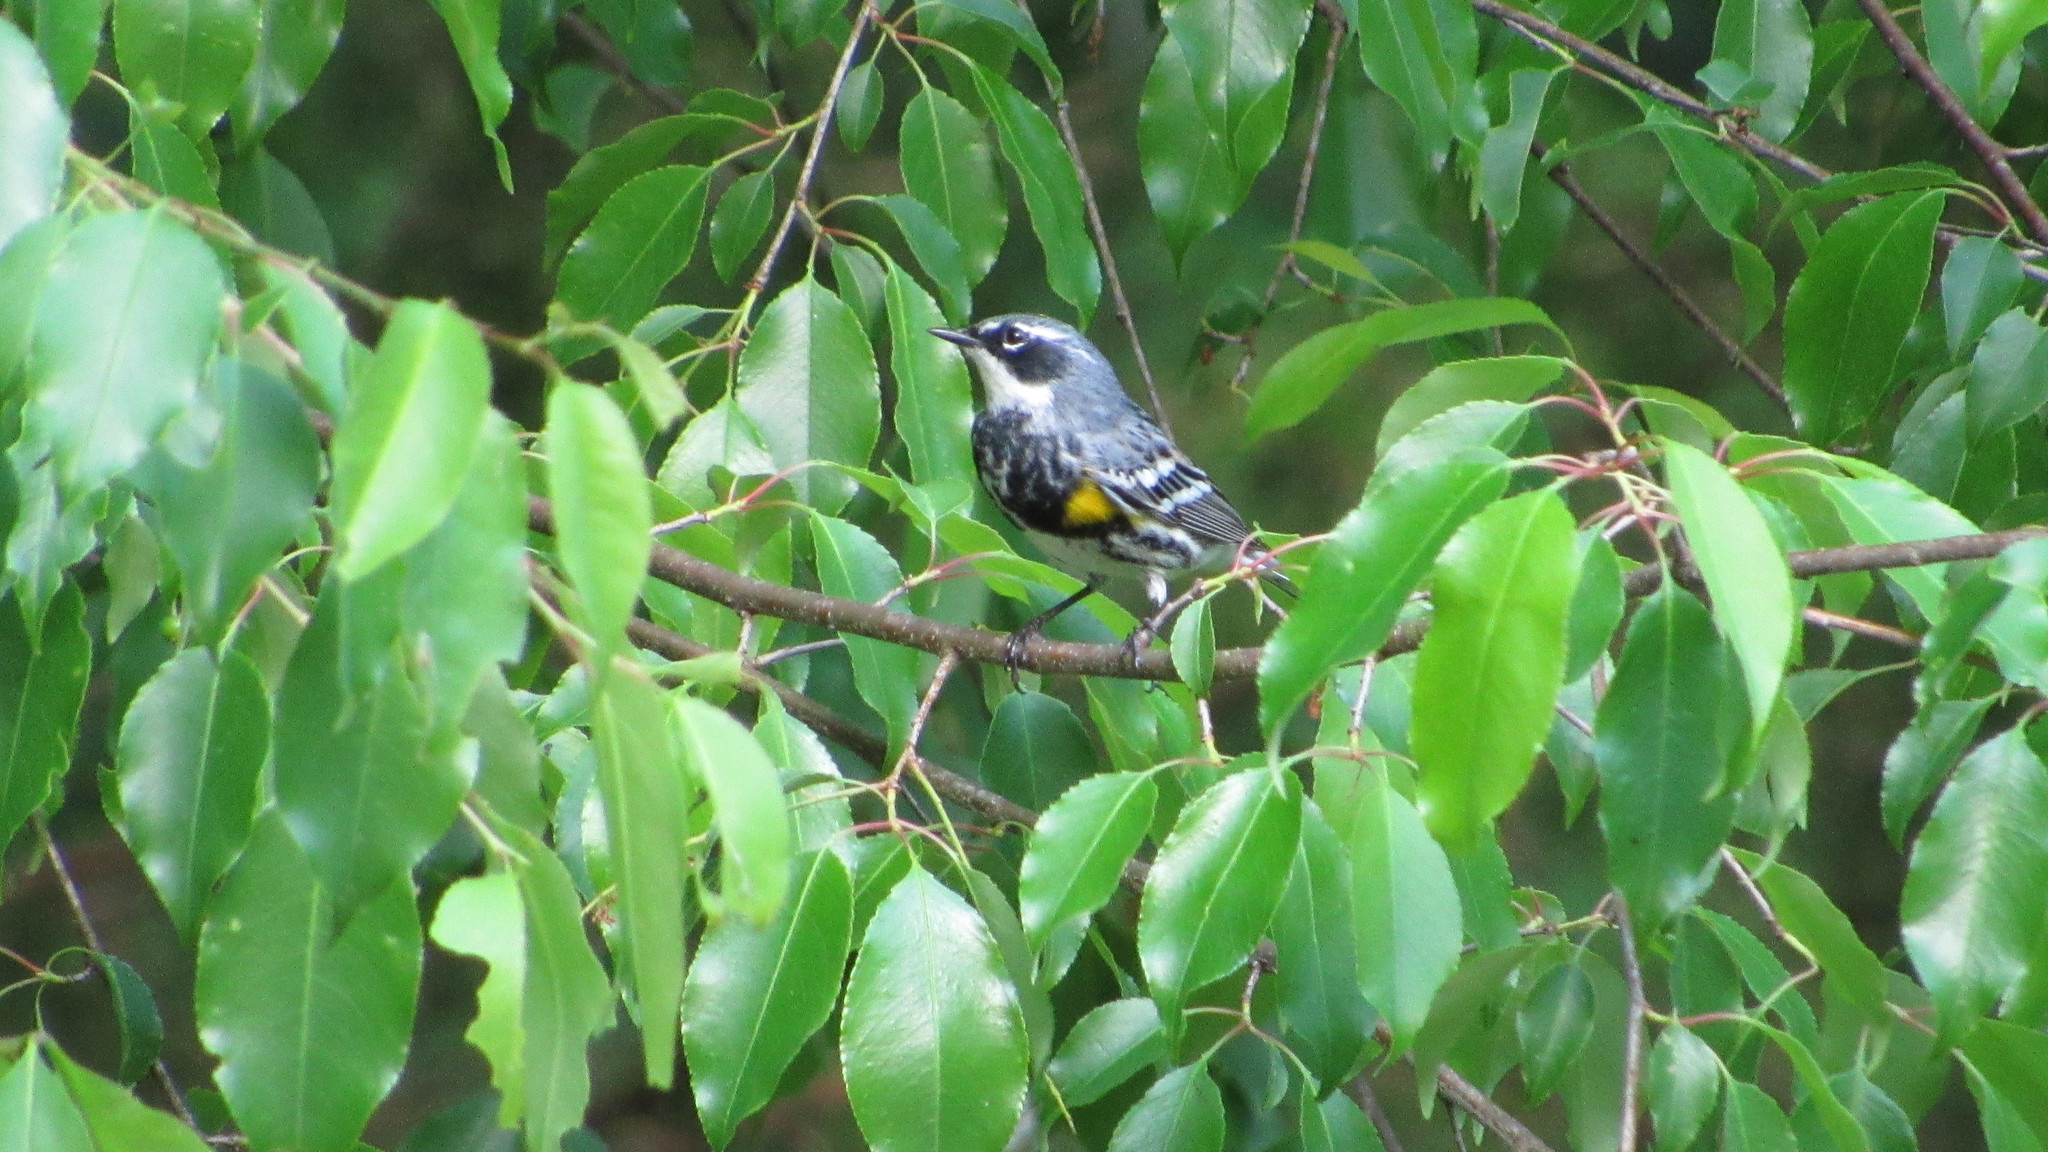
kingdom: Animalia
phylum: Chordata
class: Aves
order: Passeriformes
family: Parulidae
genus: Setophaga
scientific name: Setophaga coronata
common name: Myrtle warbler
